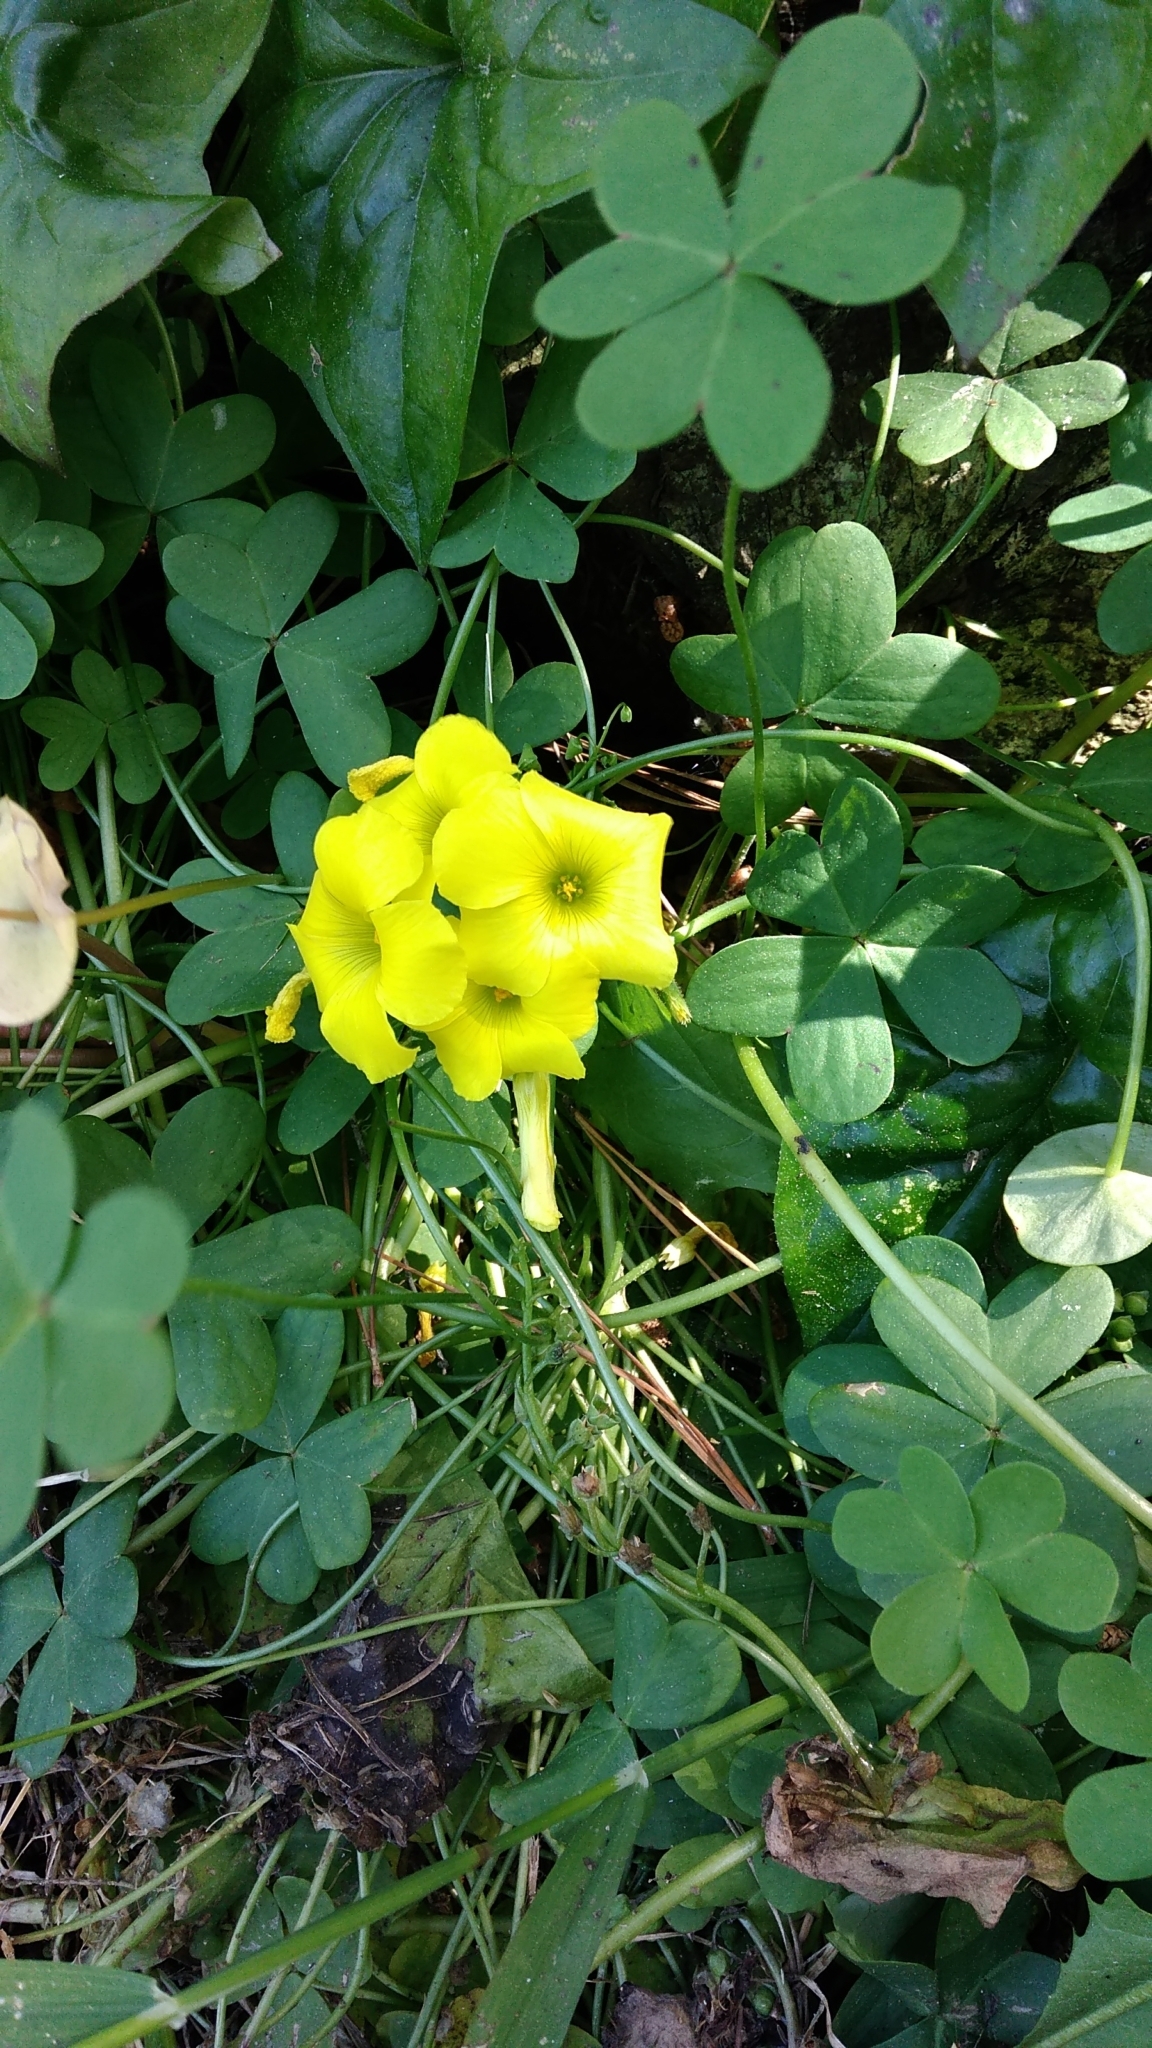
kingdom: Plantae
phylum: Tracheophyta
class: Magnoliopsida
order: Oxalidales
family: Oxalidaceae
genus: Oxalis
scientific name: Oxalis pes-caprae
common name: Bermuda-buttercup
